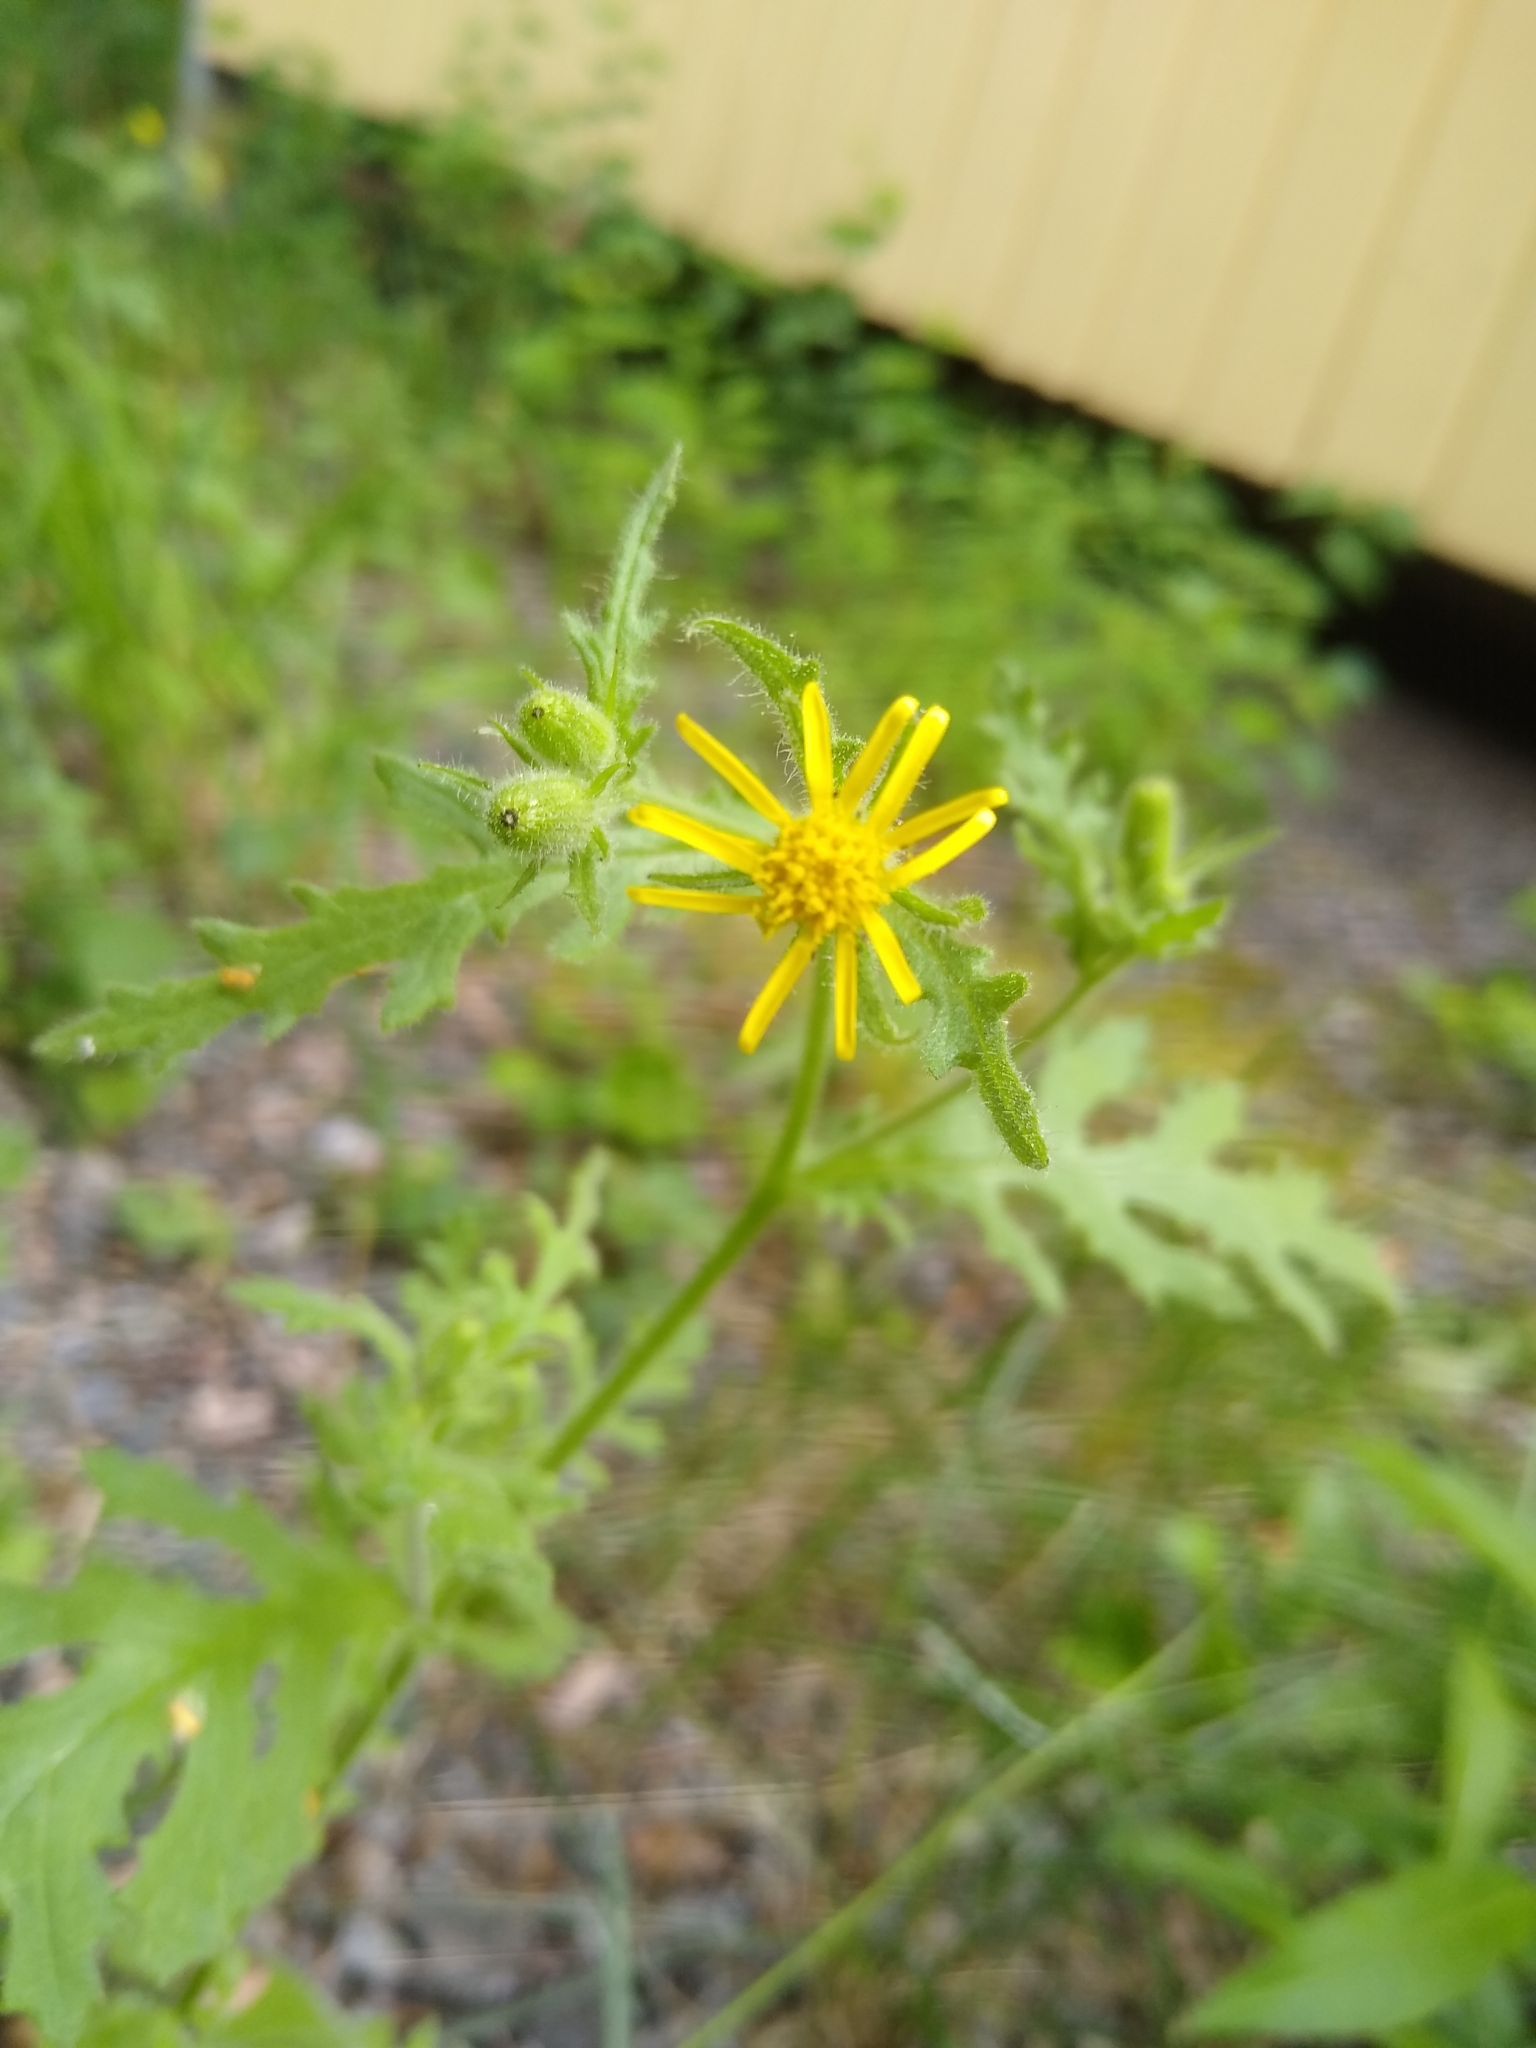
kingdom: Plantae
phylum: Tracheophyta
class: Magnoliopsida
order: Asterales
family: Asteraceae
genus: Senecio
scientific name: Senecio viscosus
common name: Sticky groundsel
